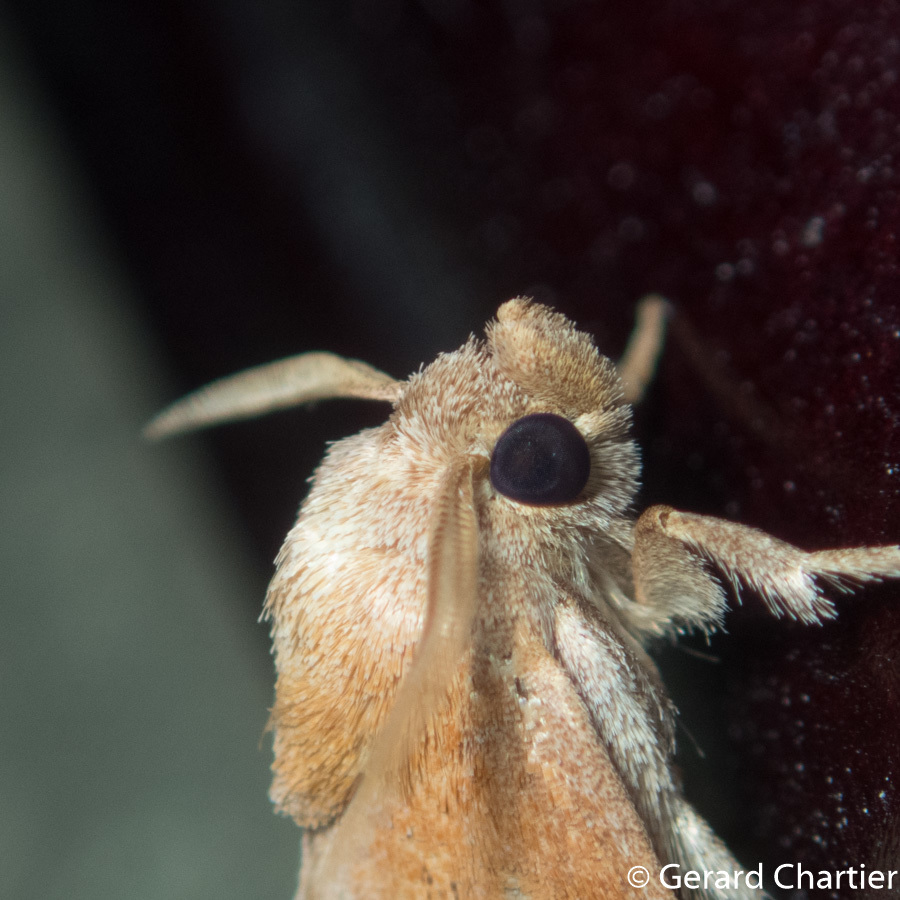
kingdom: Animalia
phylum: Arthropoda
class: Insecta
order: Lepidoptera
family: Limacodidae
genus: Oxyplax
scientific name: Oxyplax pallivitta
